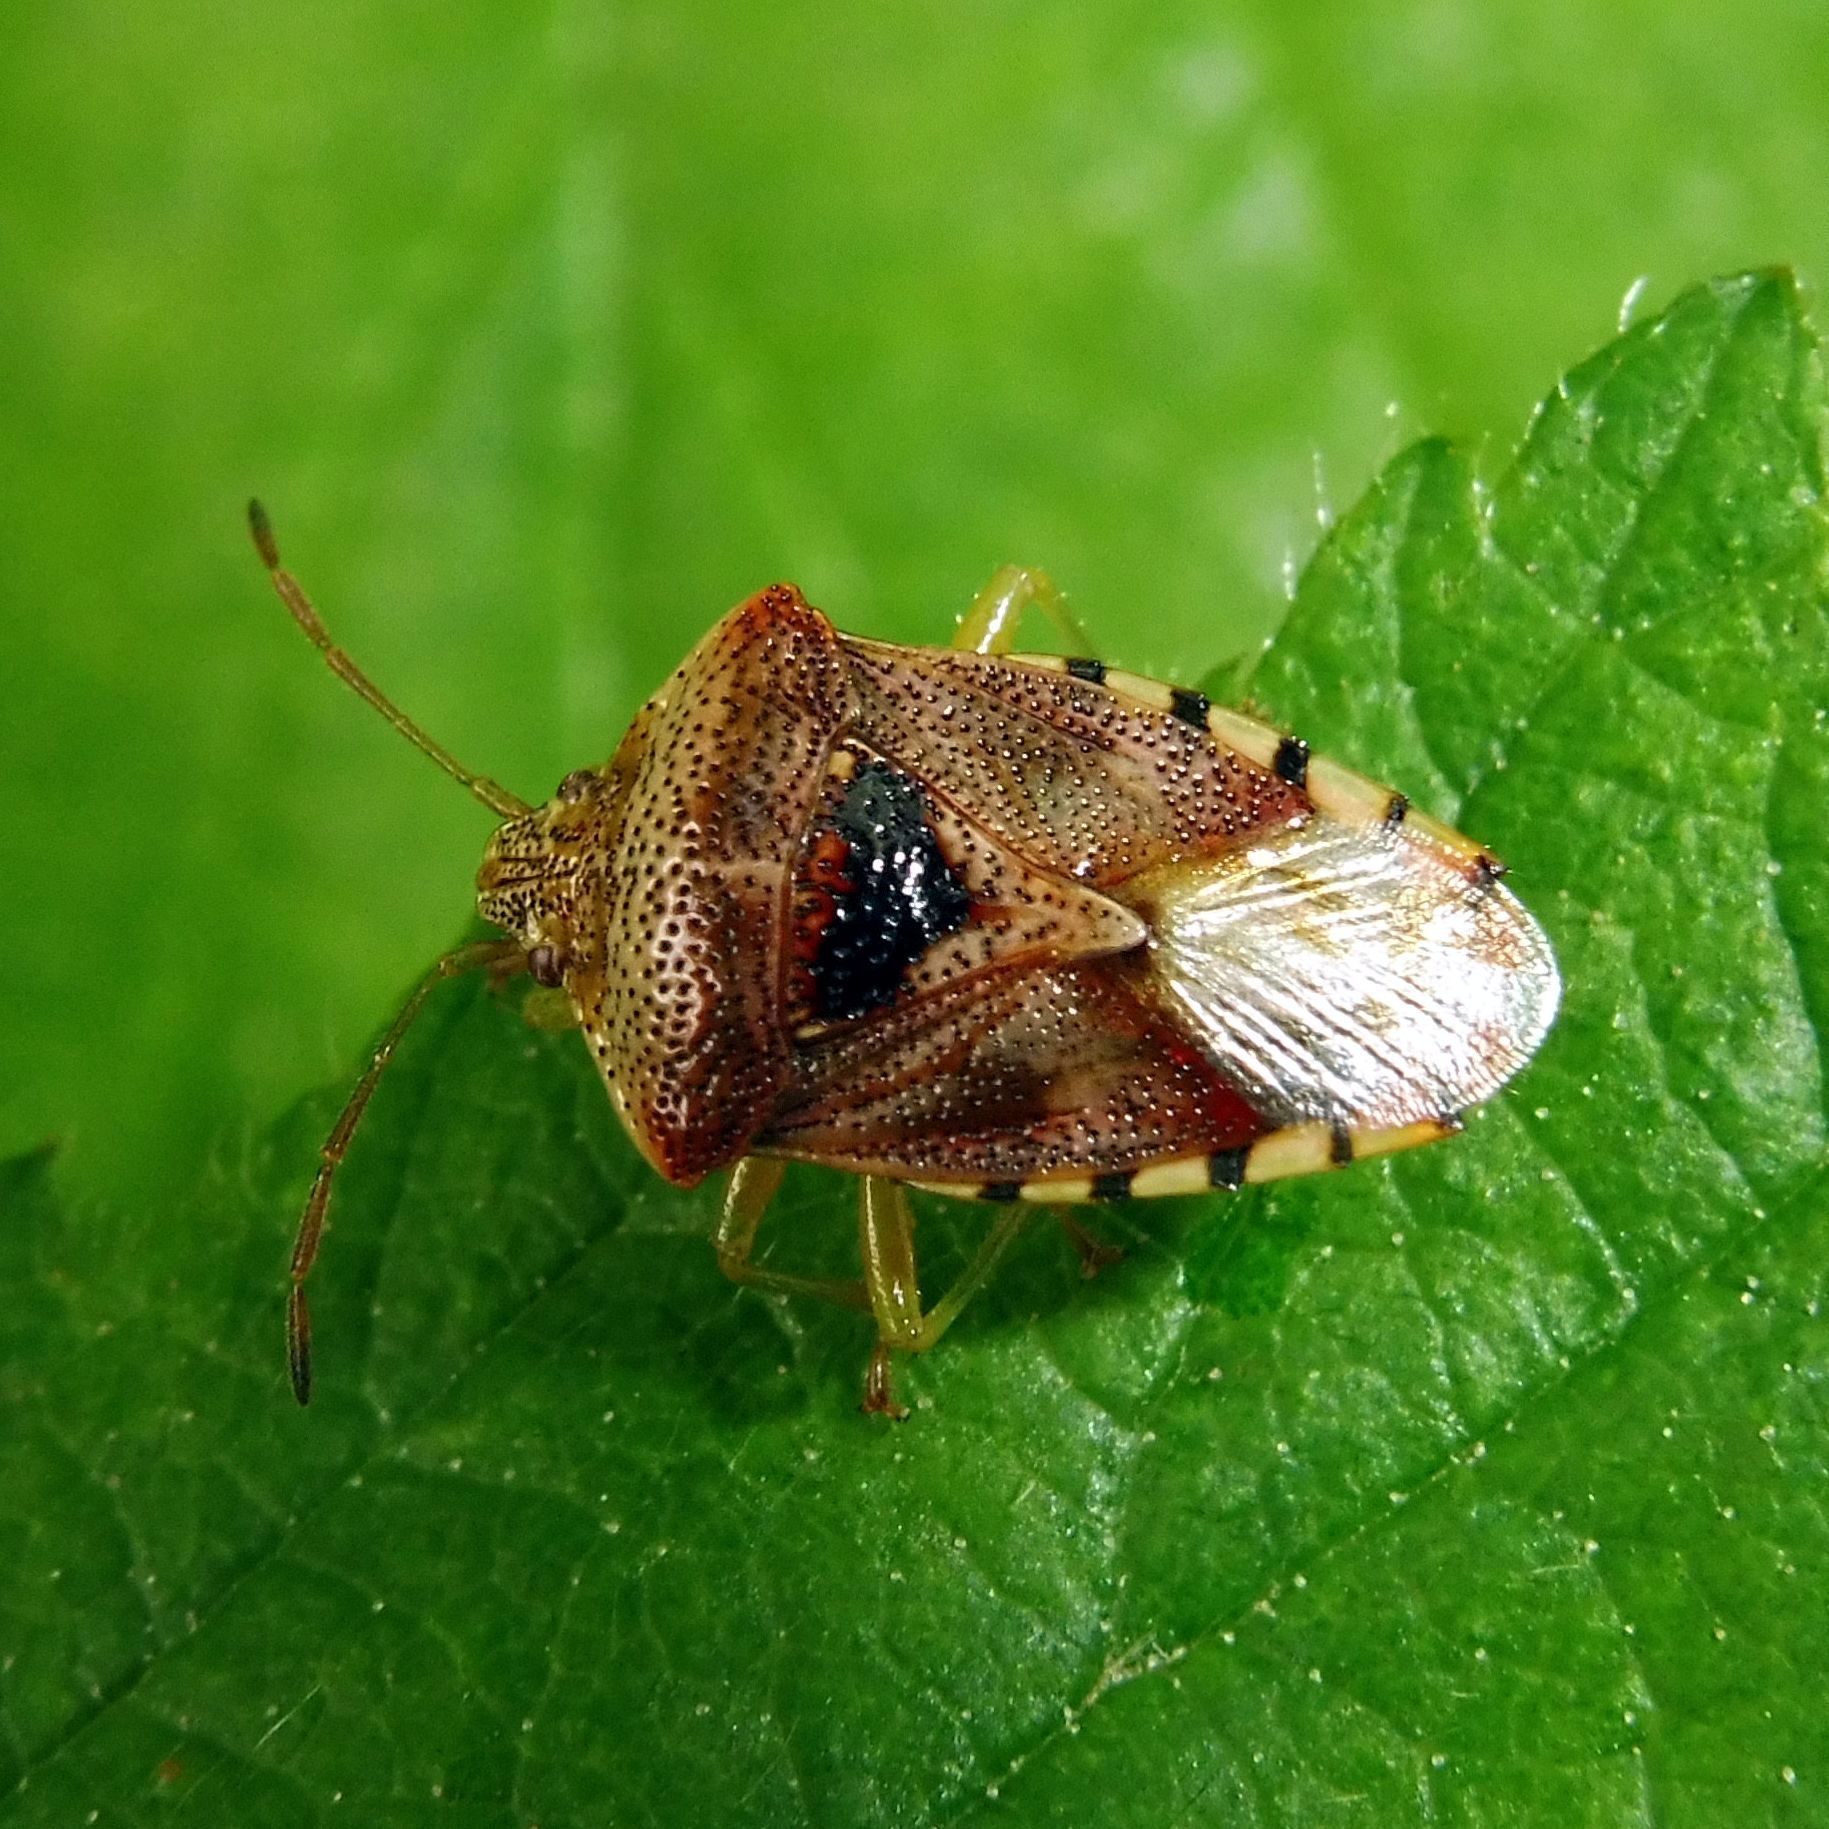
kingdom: Animalia
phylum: Arthropoda
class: Insecta
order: Hemiptera
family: Acanthosomatidae
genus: Elasmucha
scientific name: Elasmucha grisea
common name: Parent bug
